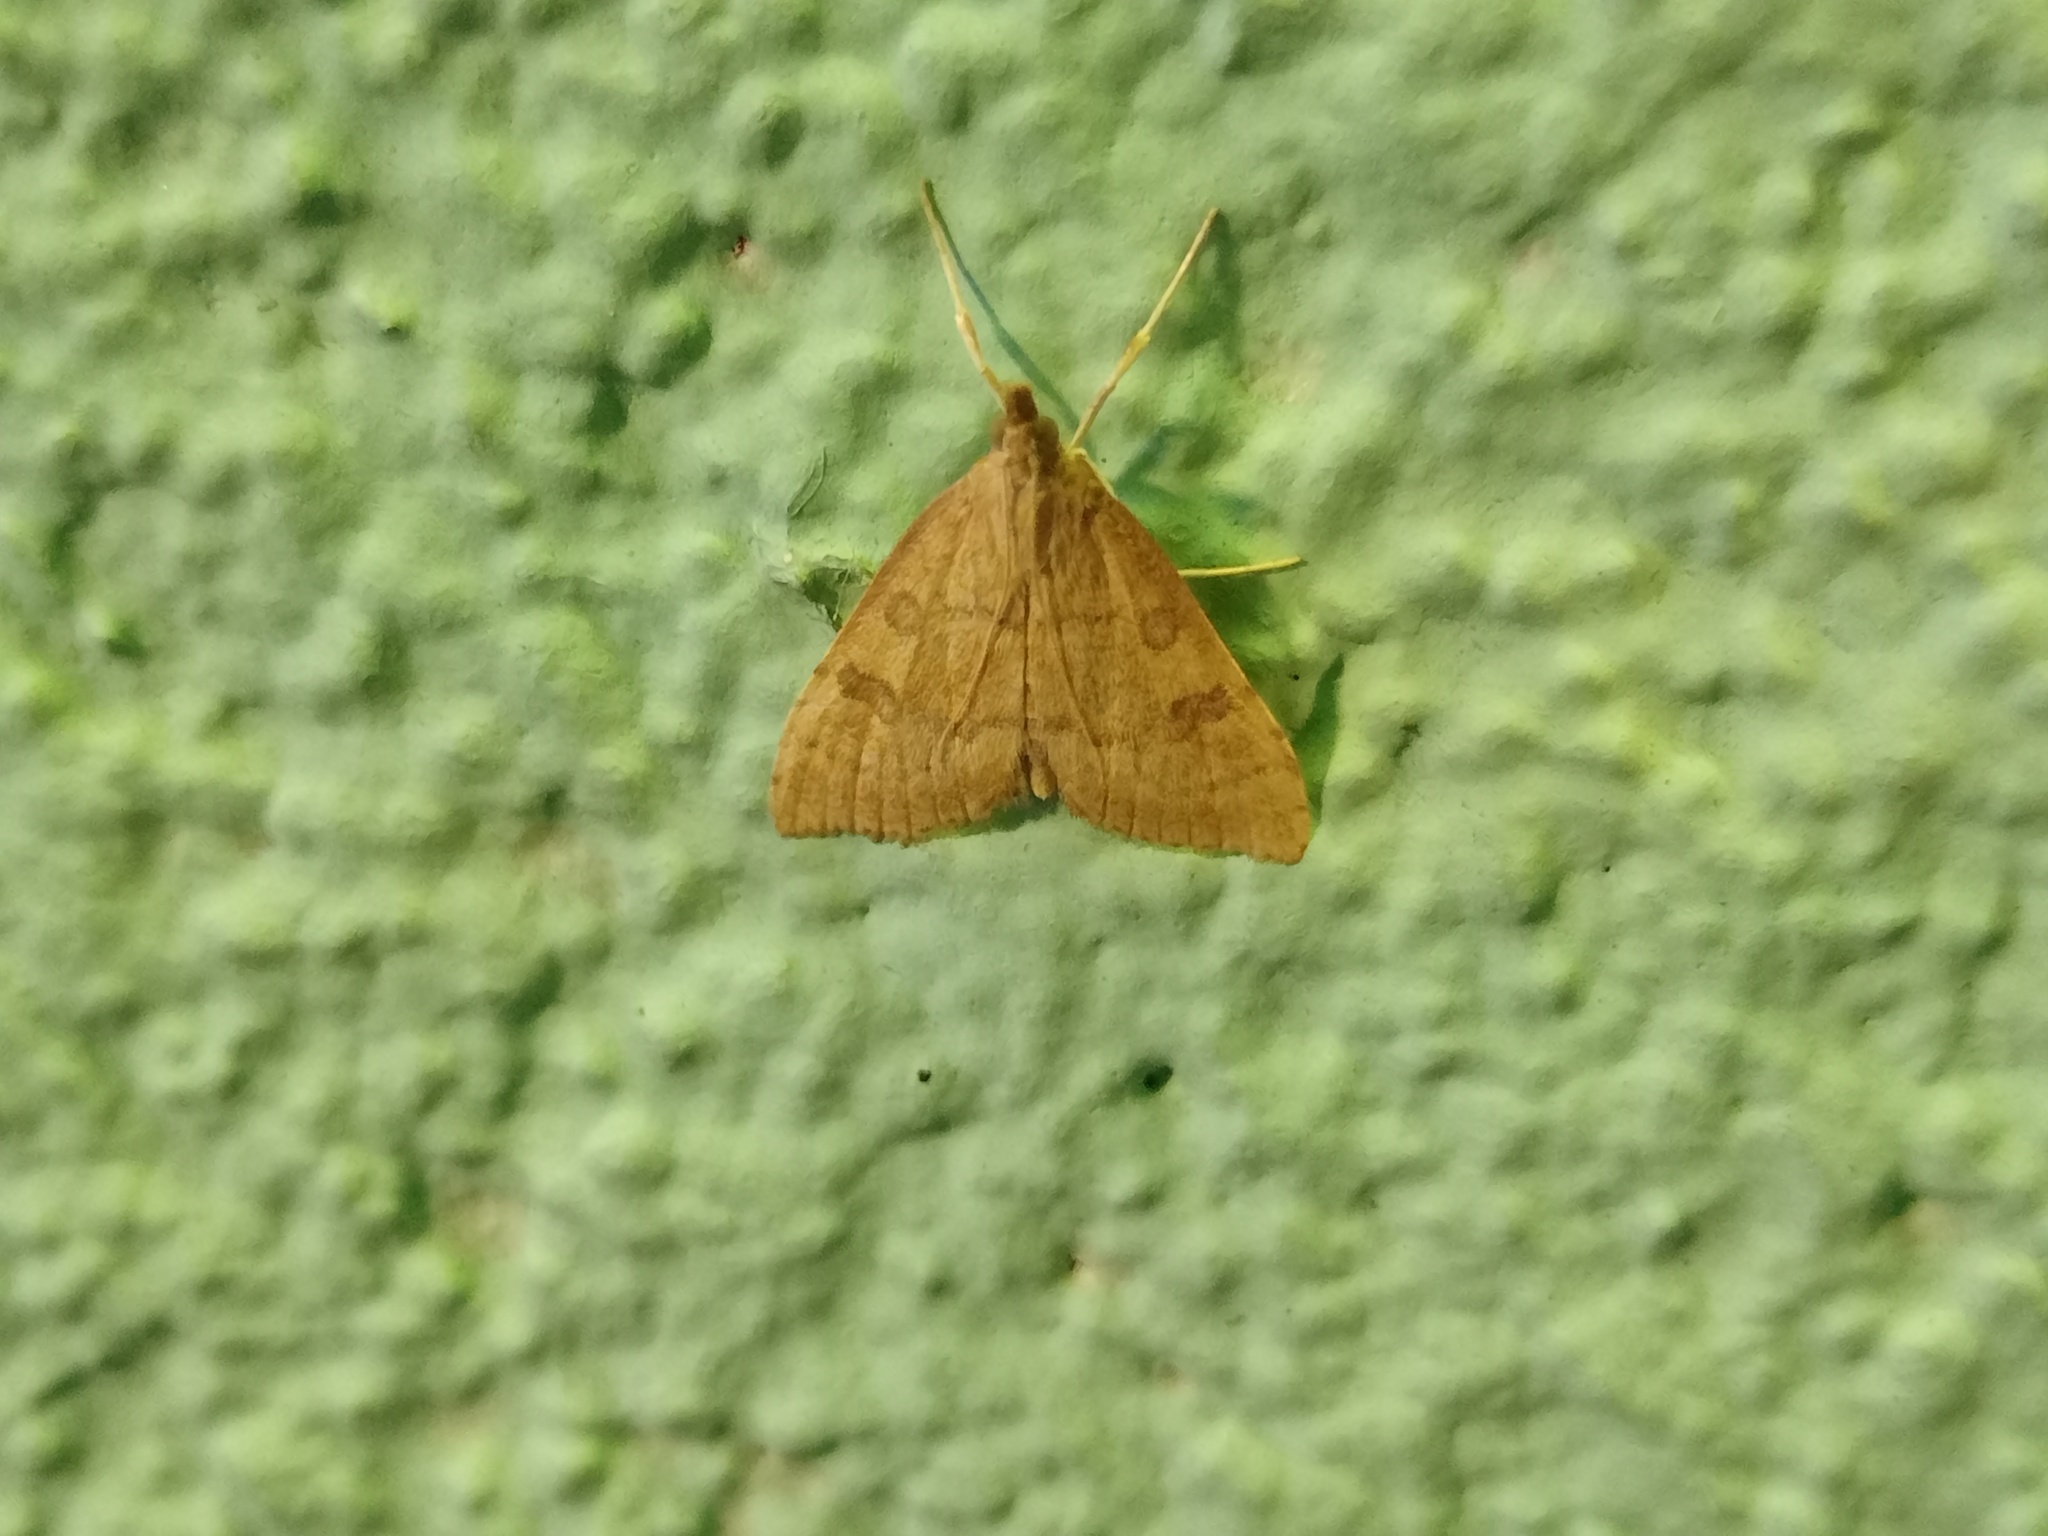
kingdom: Animalia
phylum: Arthropoda
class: Insecta
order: Lepidoptera
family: Crambidae
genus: Udea
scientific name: Udea fulvalis
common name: Fulvous pearl
